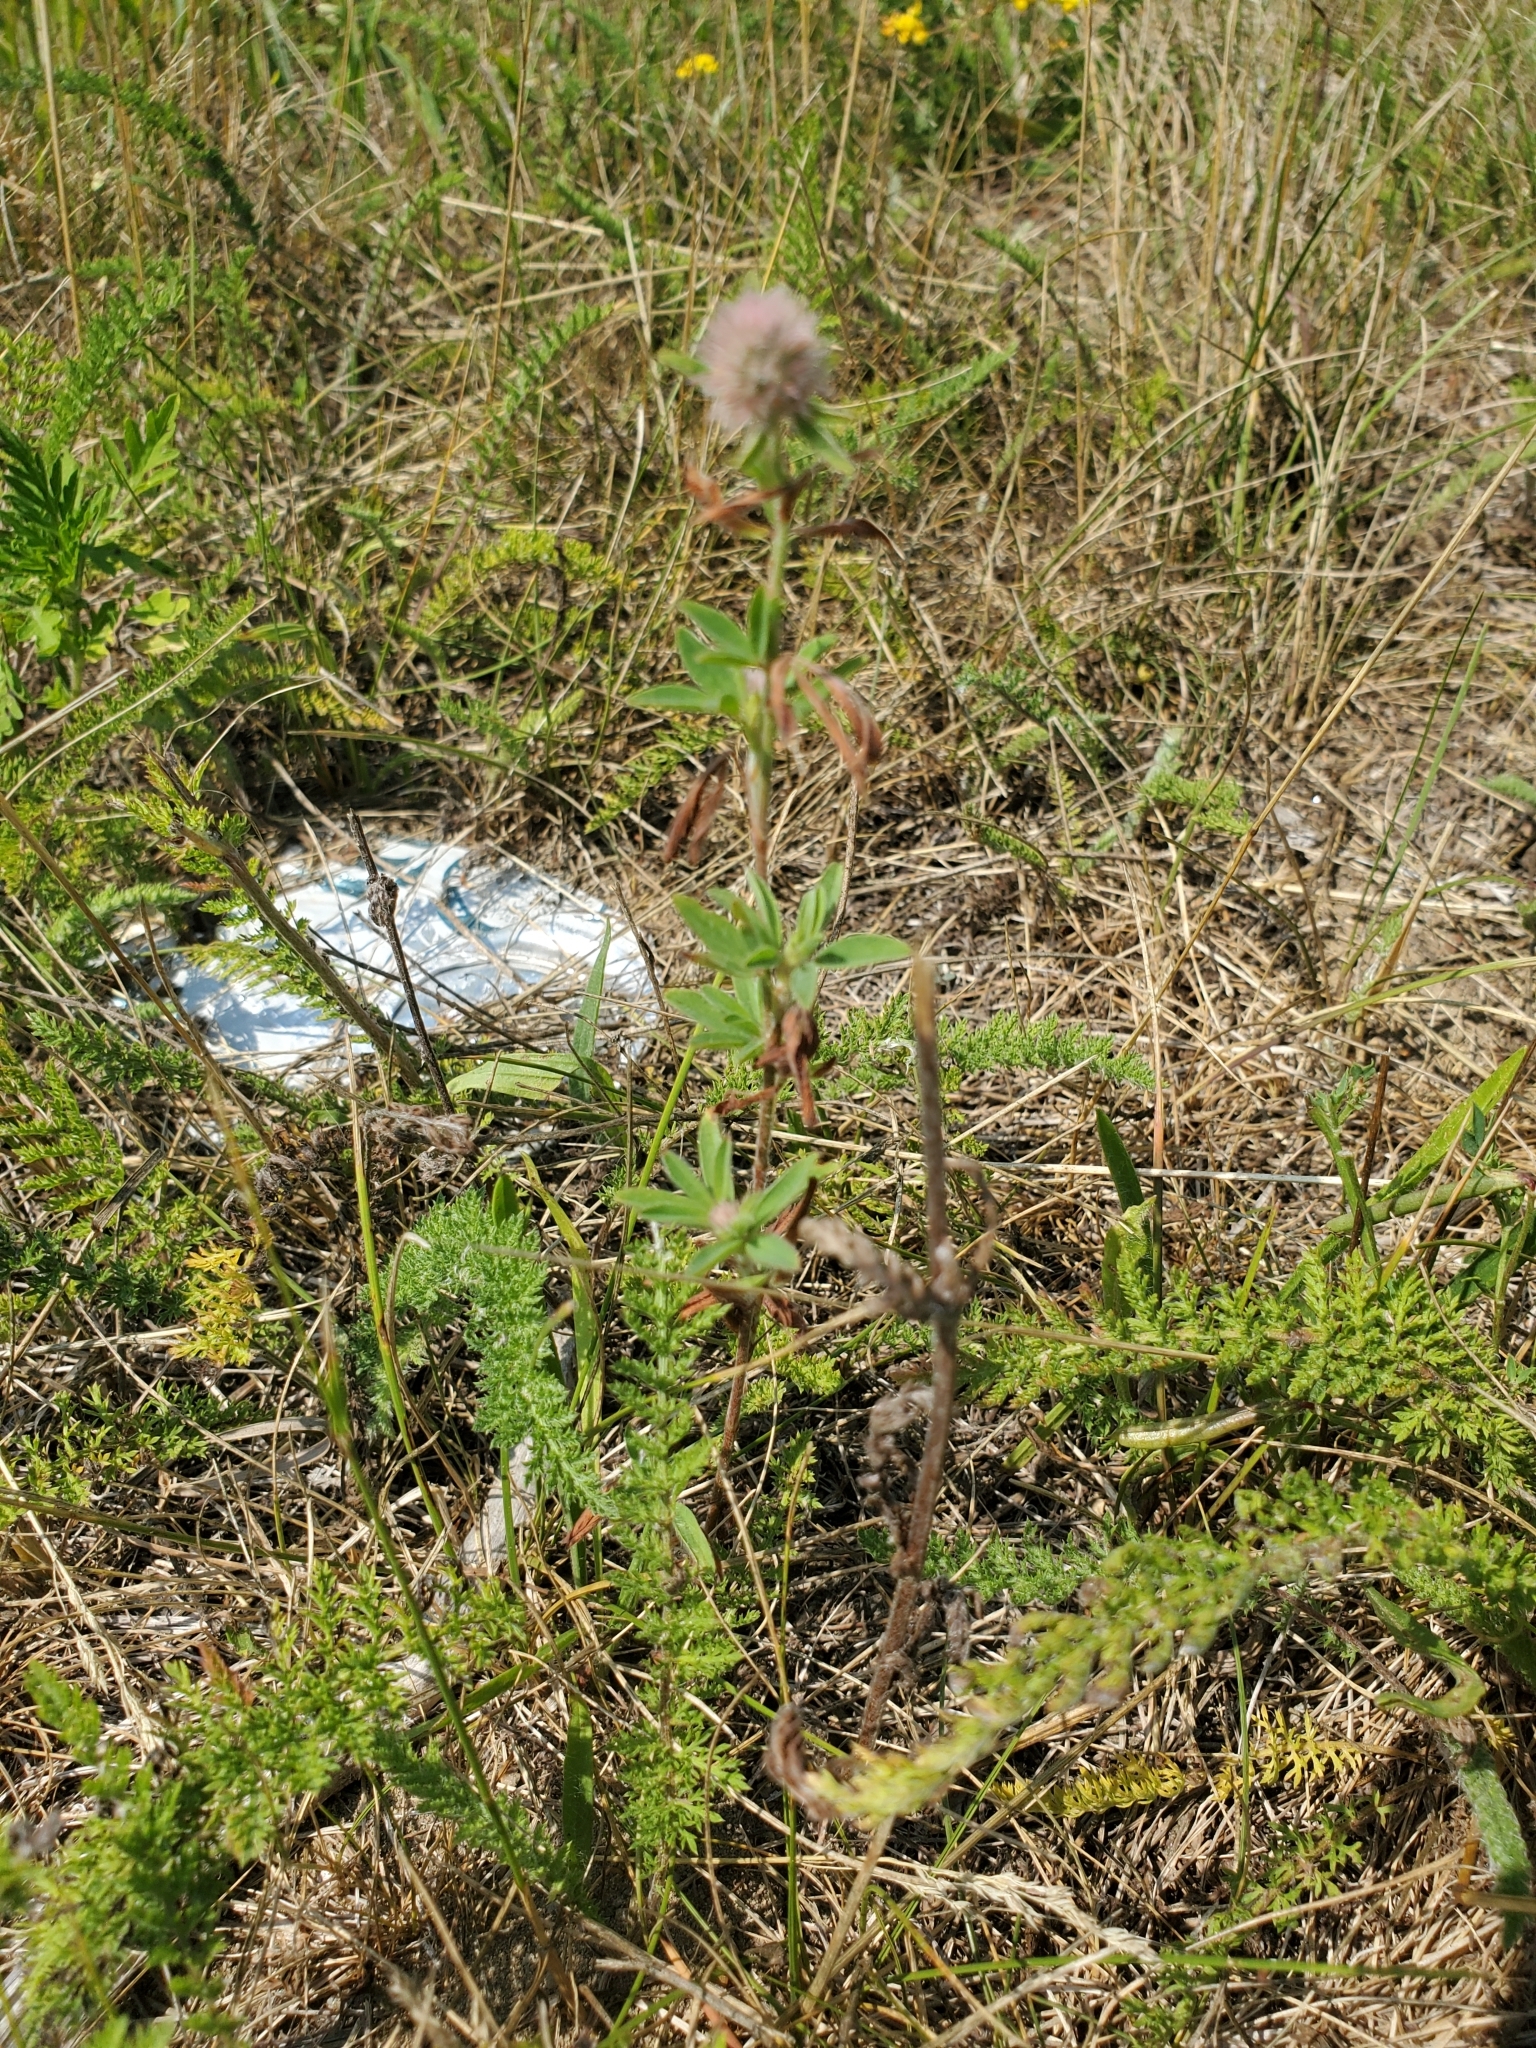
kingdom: Plantae
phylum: Tracheophyta
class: Magnoliopsida
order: Fabales
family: Fabaceae
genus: Trifolium
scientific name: Trifolium arvense
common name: Hare's-foot clover
